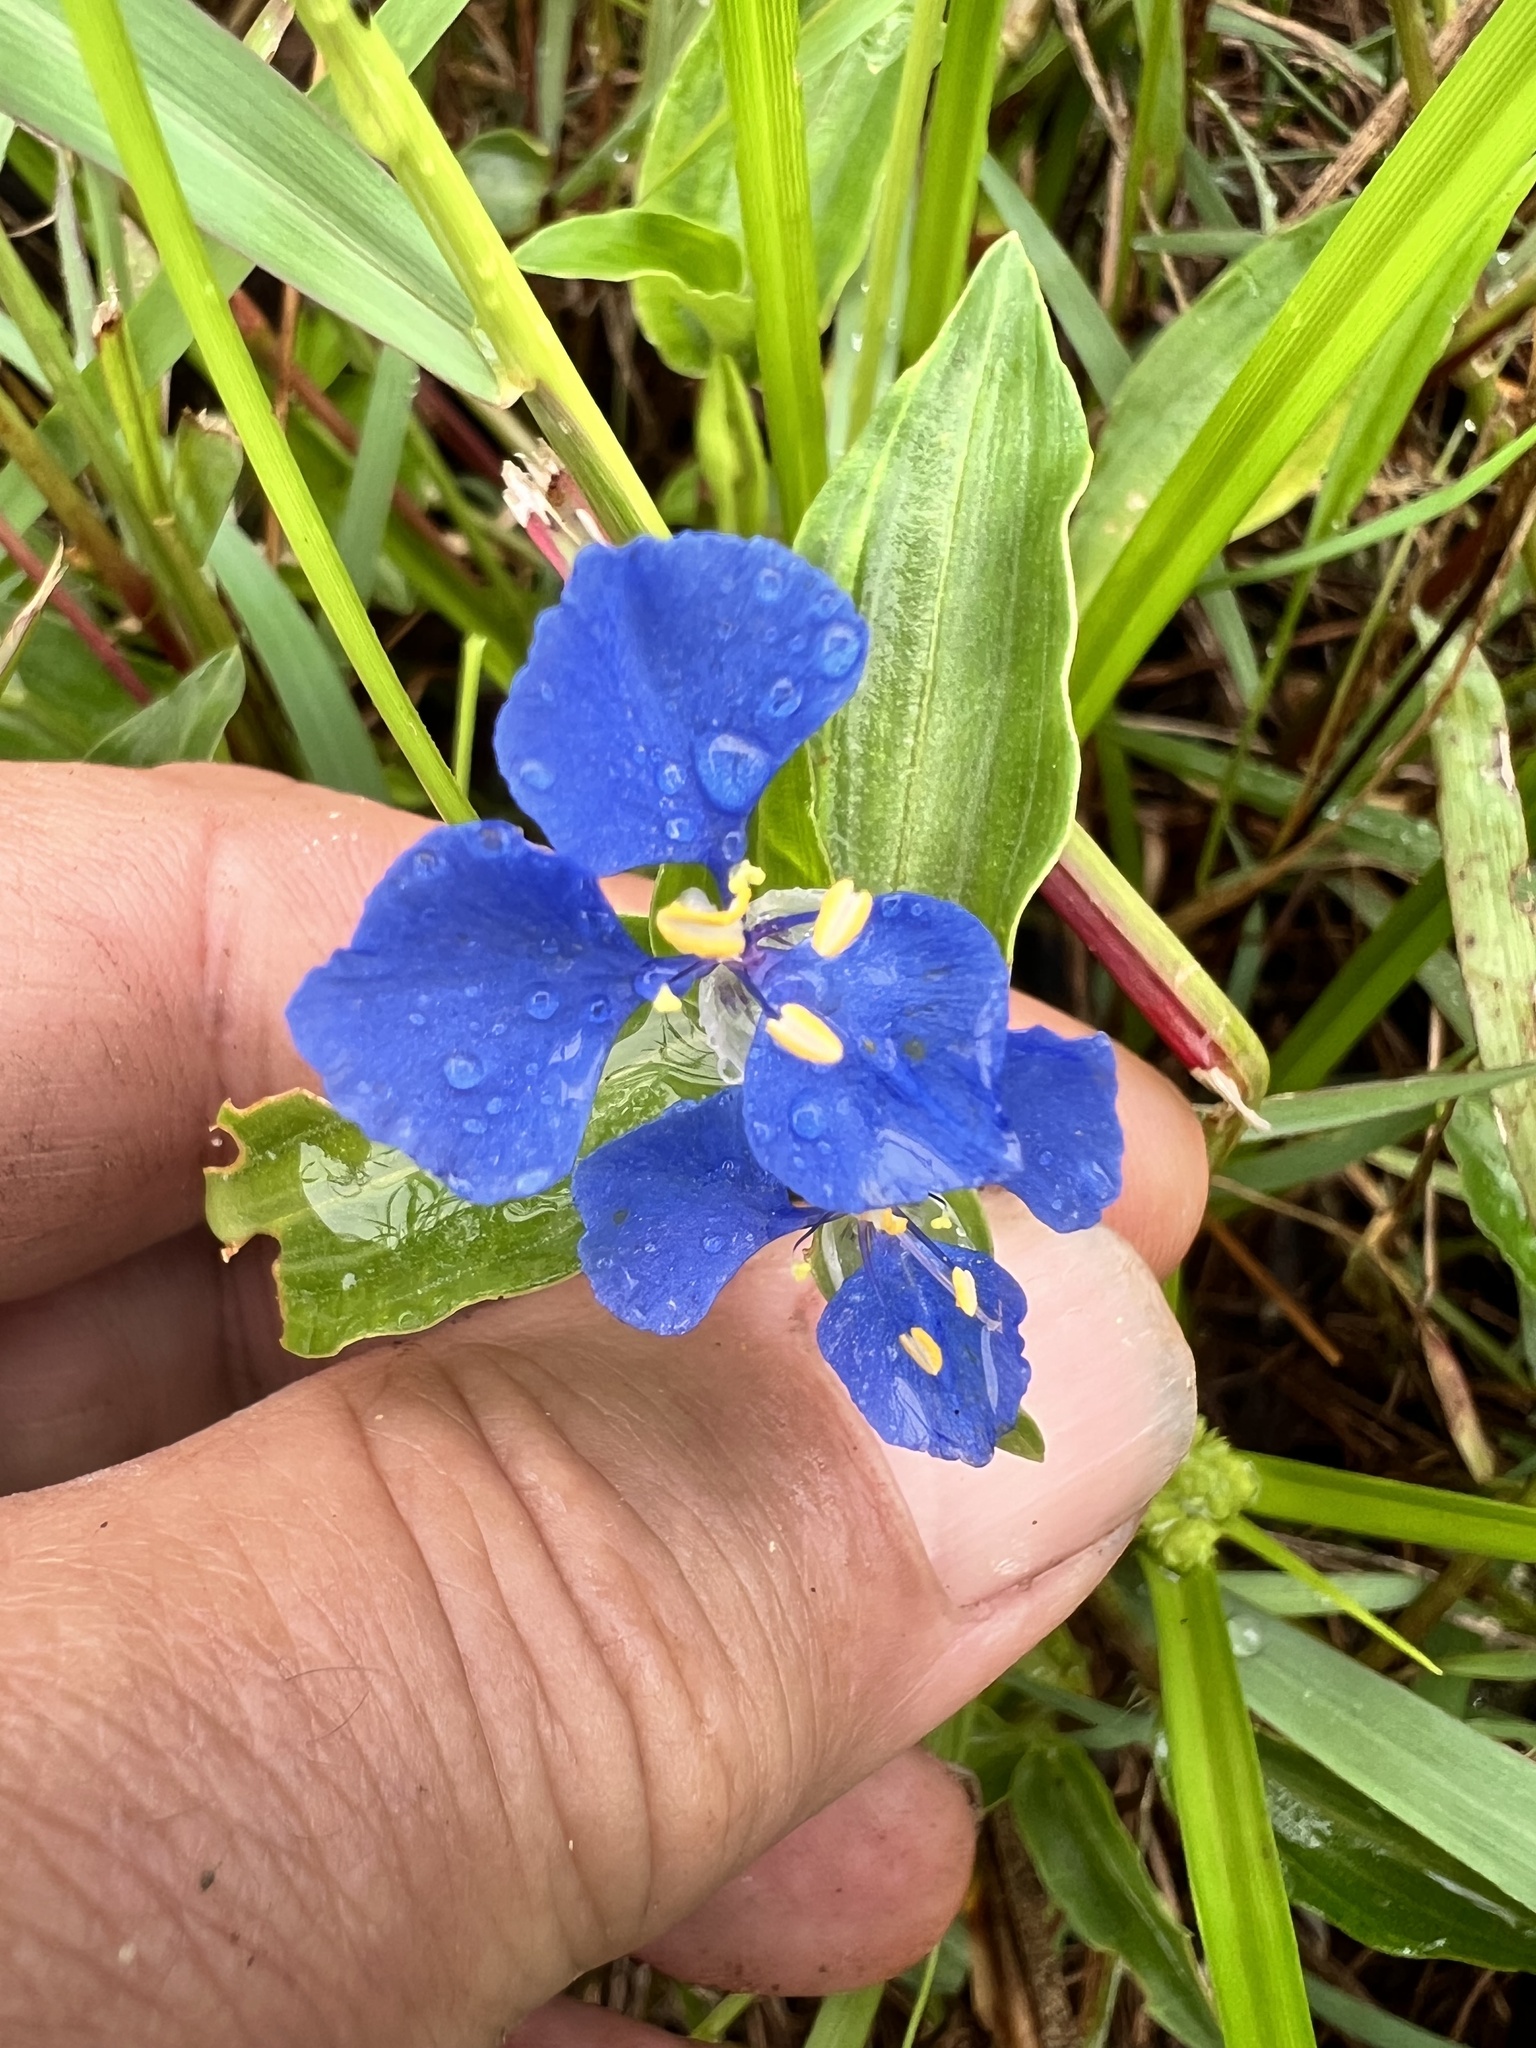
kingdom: Plantae
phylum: Tracheophyta
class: Liliopsida
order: Commelinales
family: Commelinaceae
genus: Commelina
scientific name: Commelina cyanea
